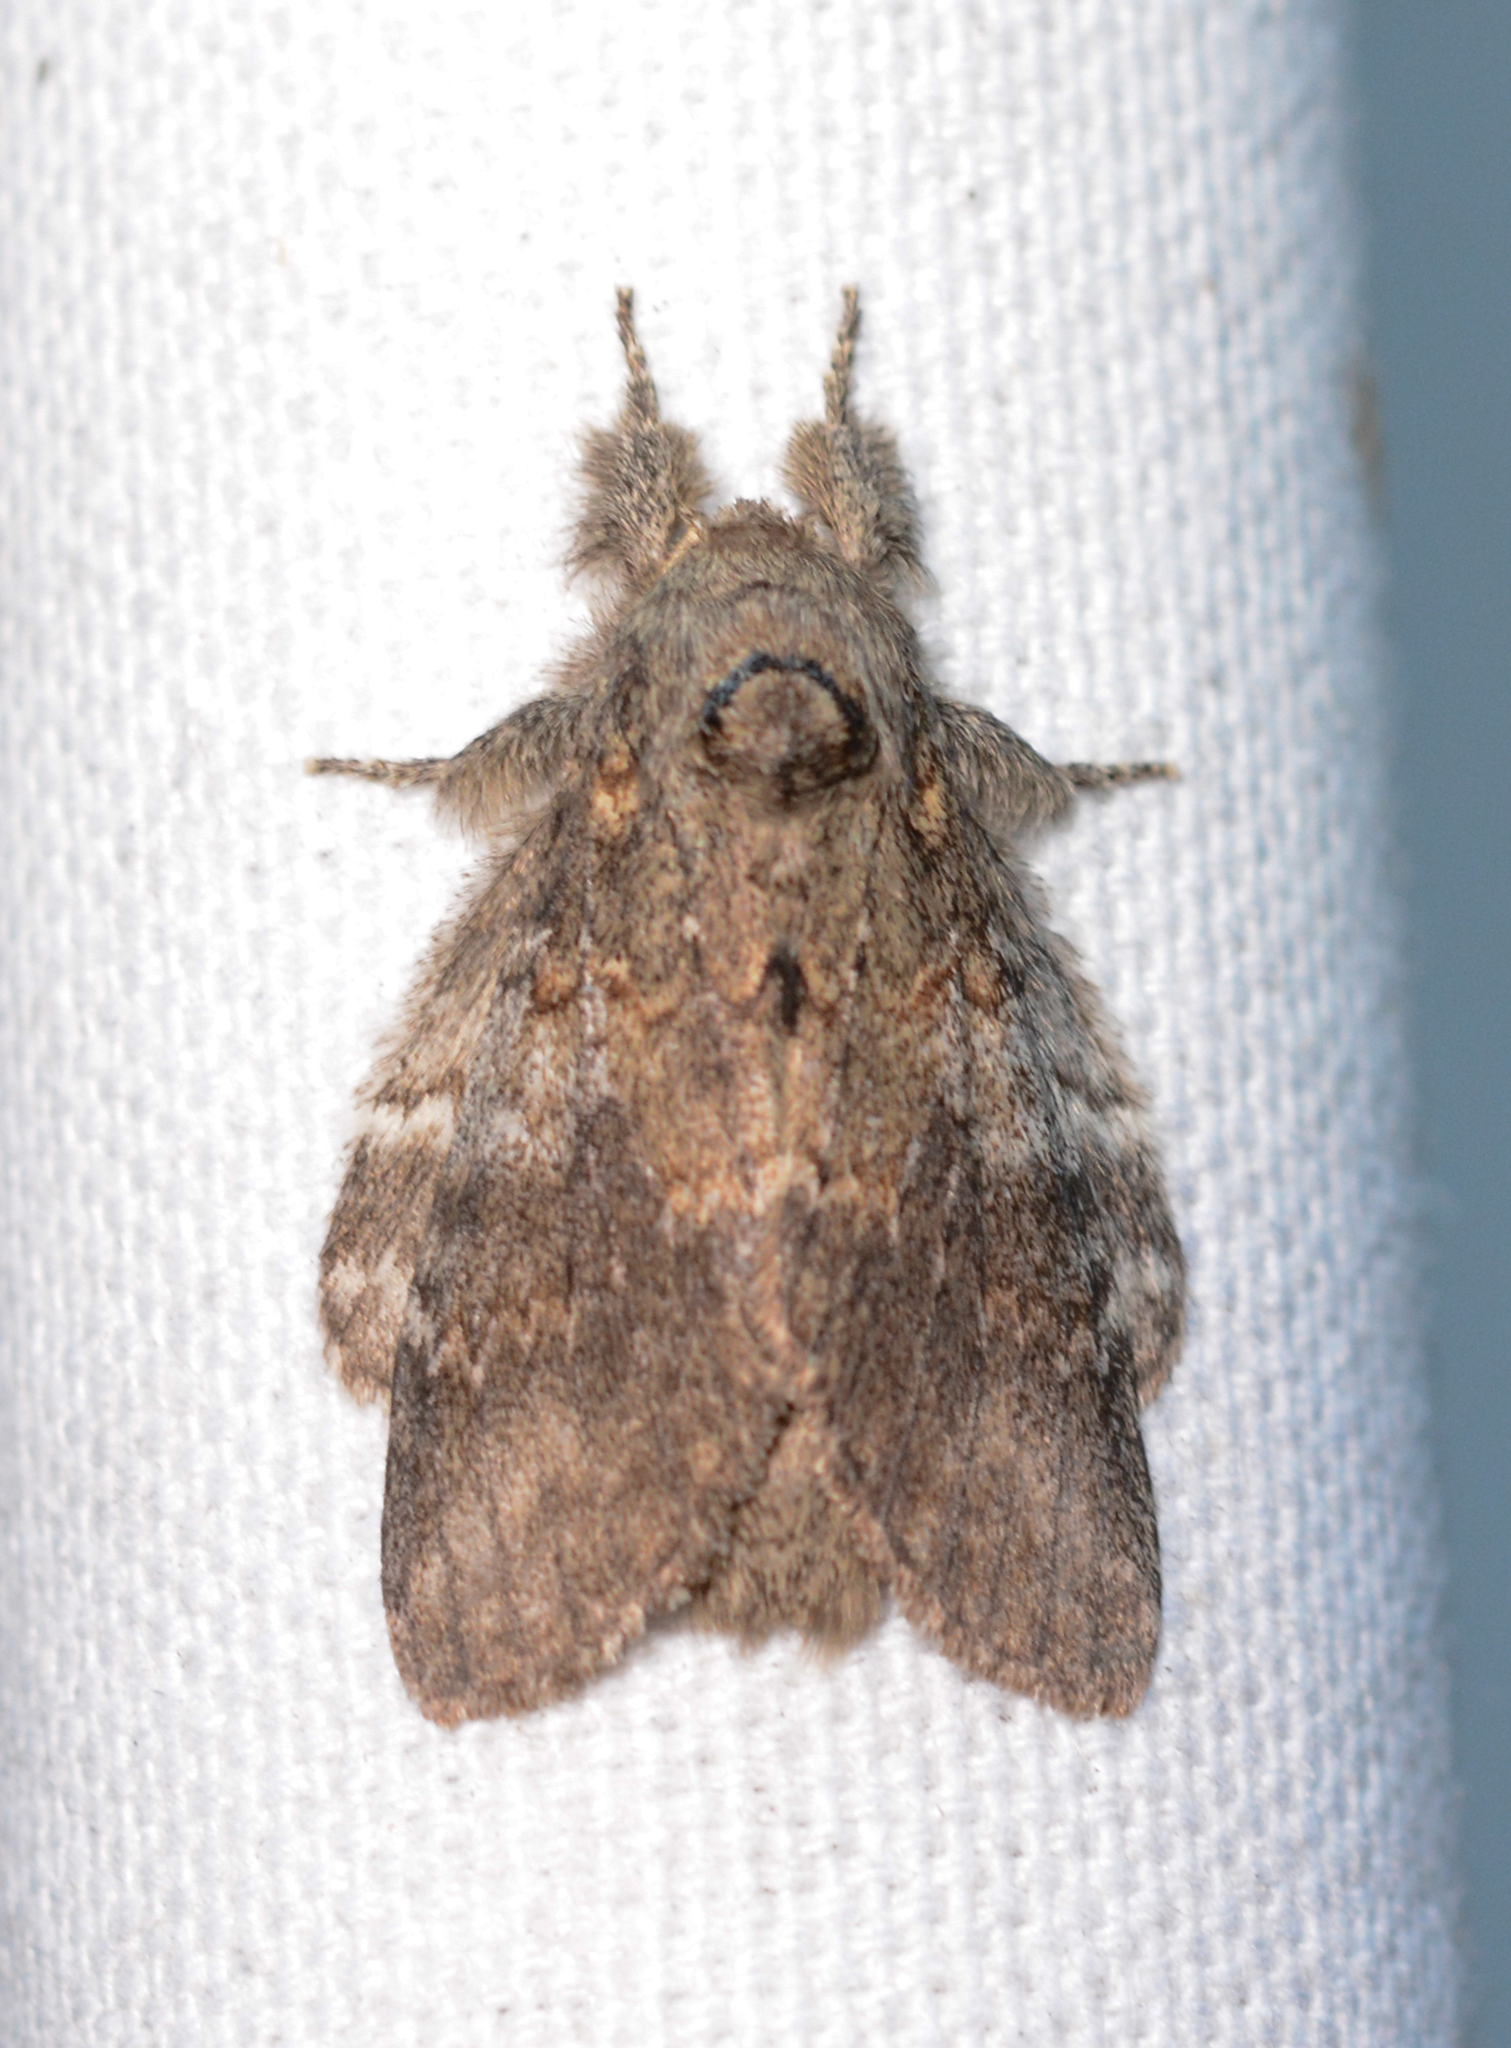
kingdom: Animalia
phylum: Arthropoda
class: Insecta
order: Lepidoptera
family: Notodontidae
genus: Peridea
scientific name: Peridea angulosa
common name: Angulose prominent
